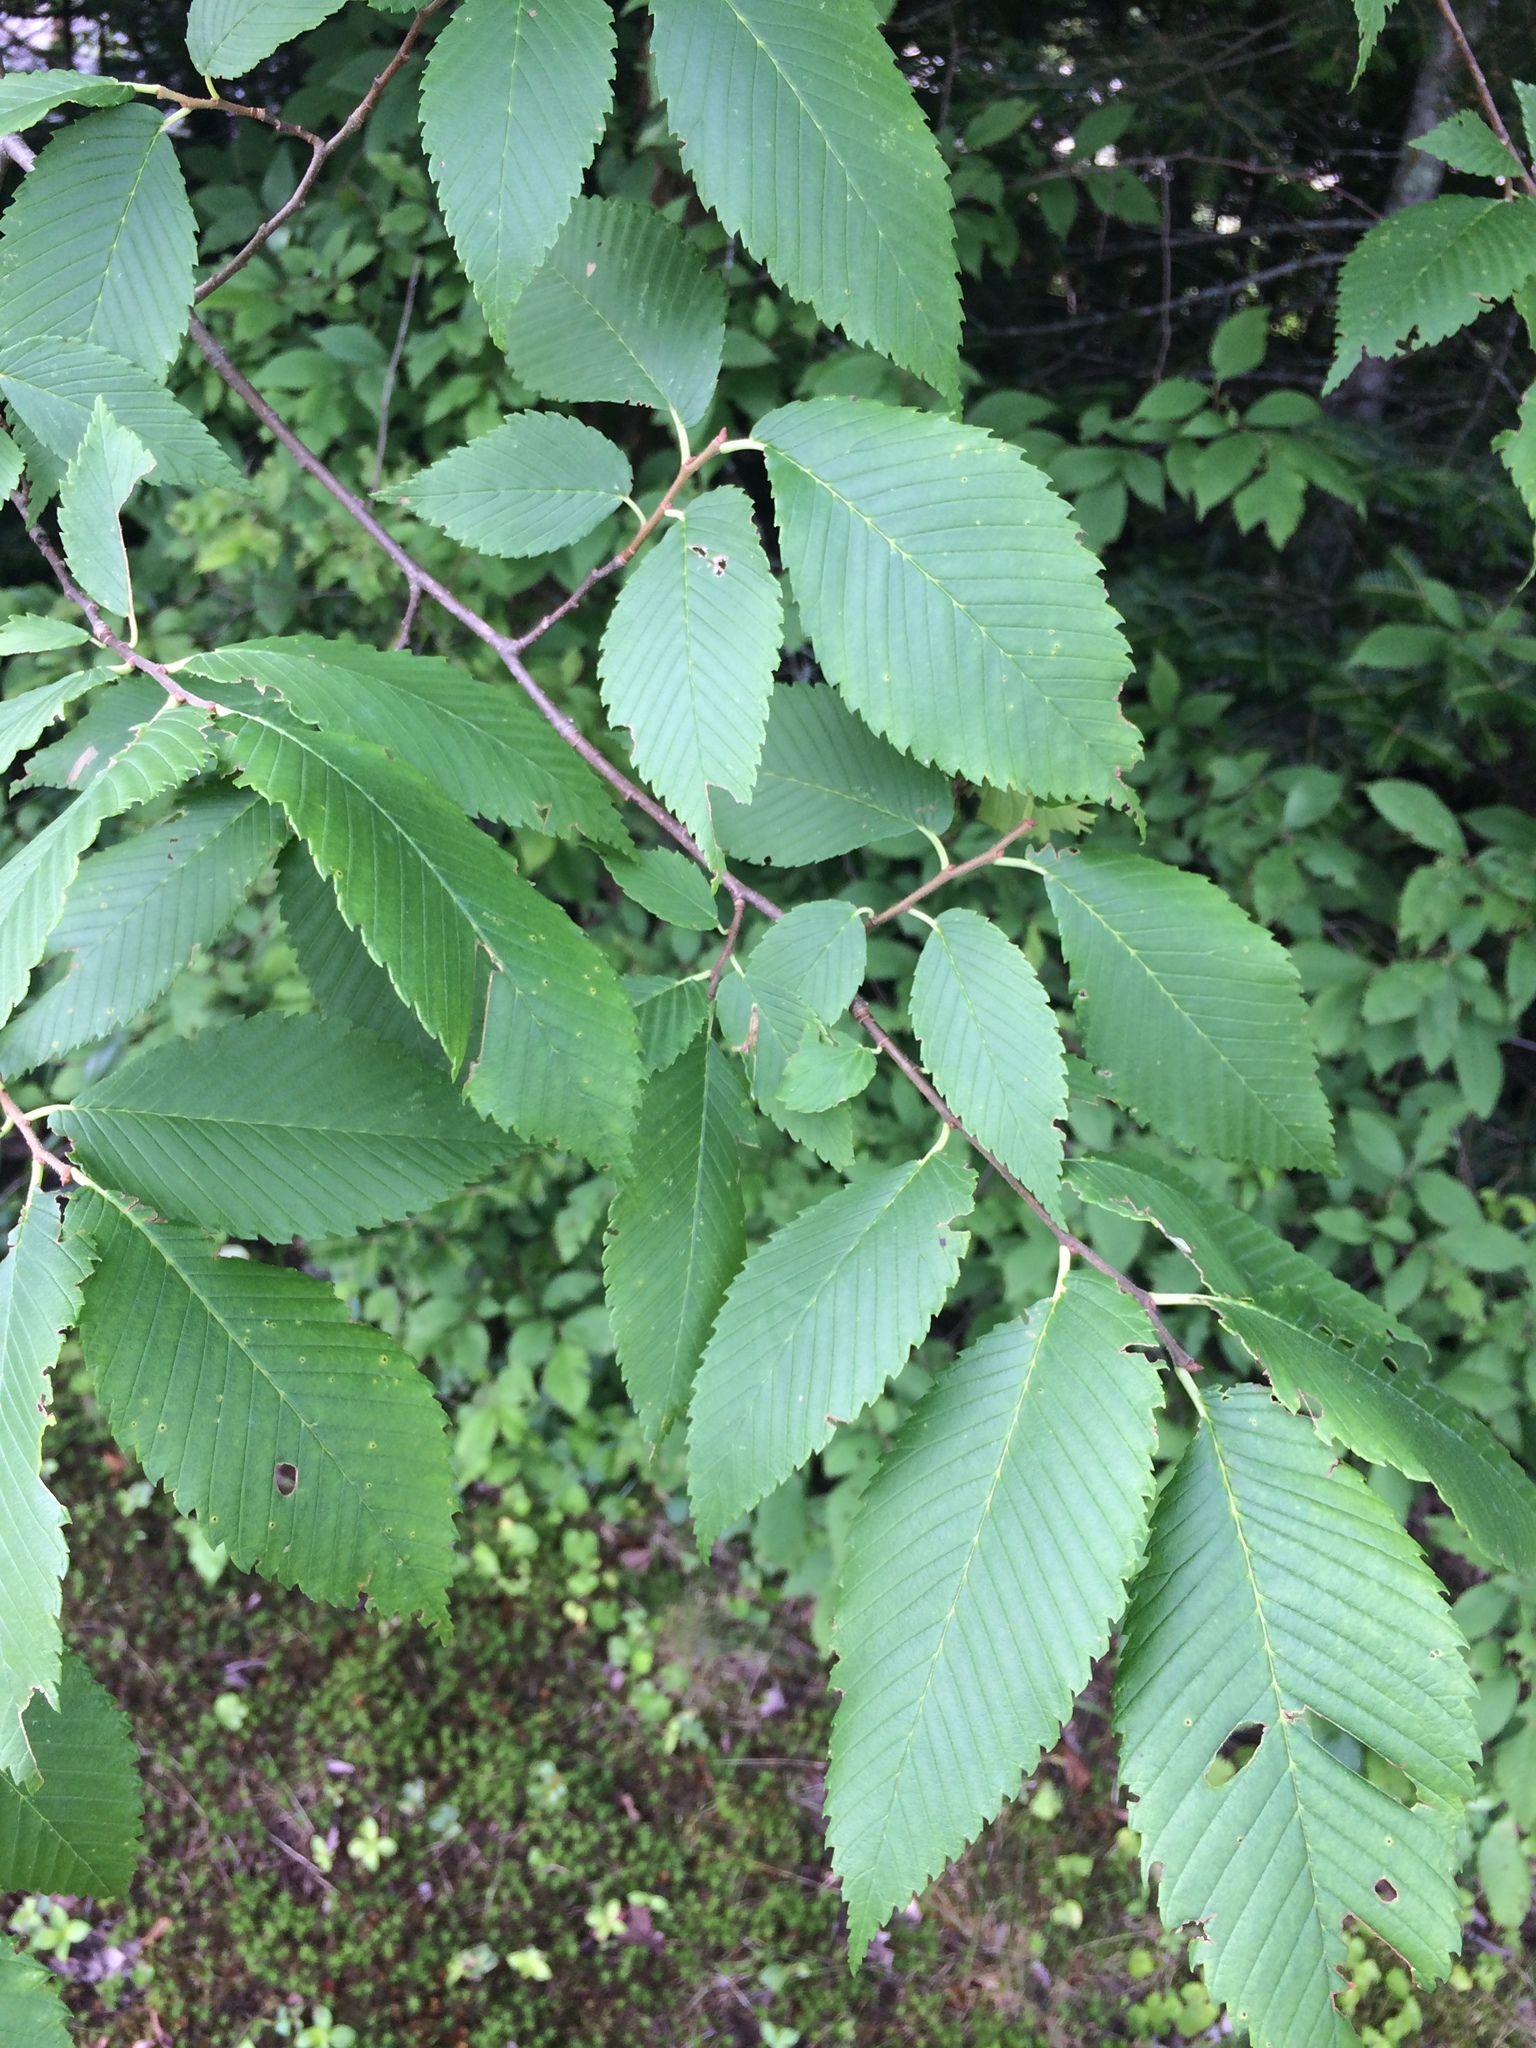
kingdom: Plantae
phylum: Tracheophyta
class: Magnoliopsida
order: Rosales
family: Ulmaceae
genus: Ulmus
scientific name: Ulmus americana
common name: American elm
